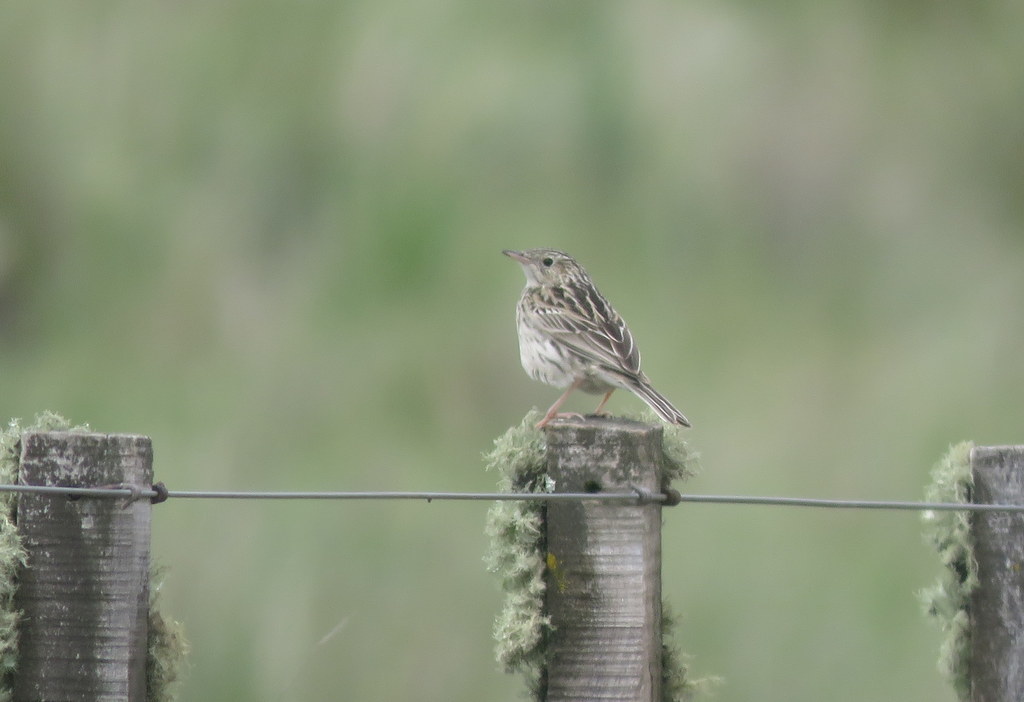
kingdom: Animalia
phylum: Chordata
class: Aves
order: Passeriformes
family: Motacillidae
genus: Anthus
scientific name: Anthus hellmayri
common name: Hellmayr's pipit
